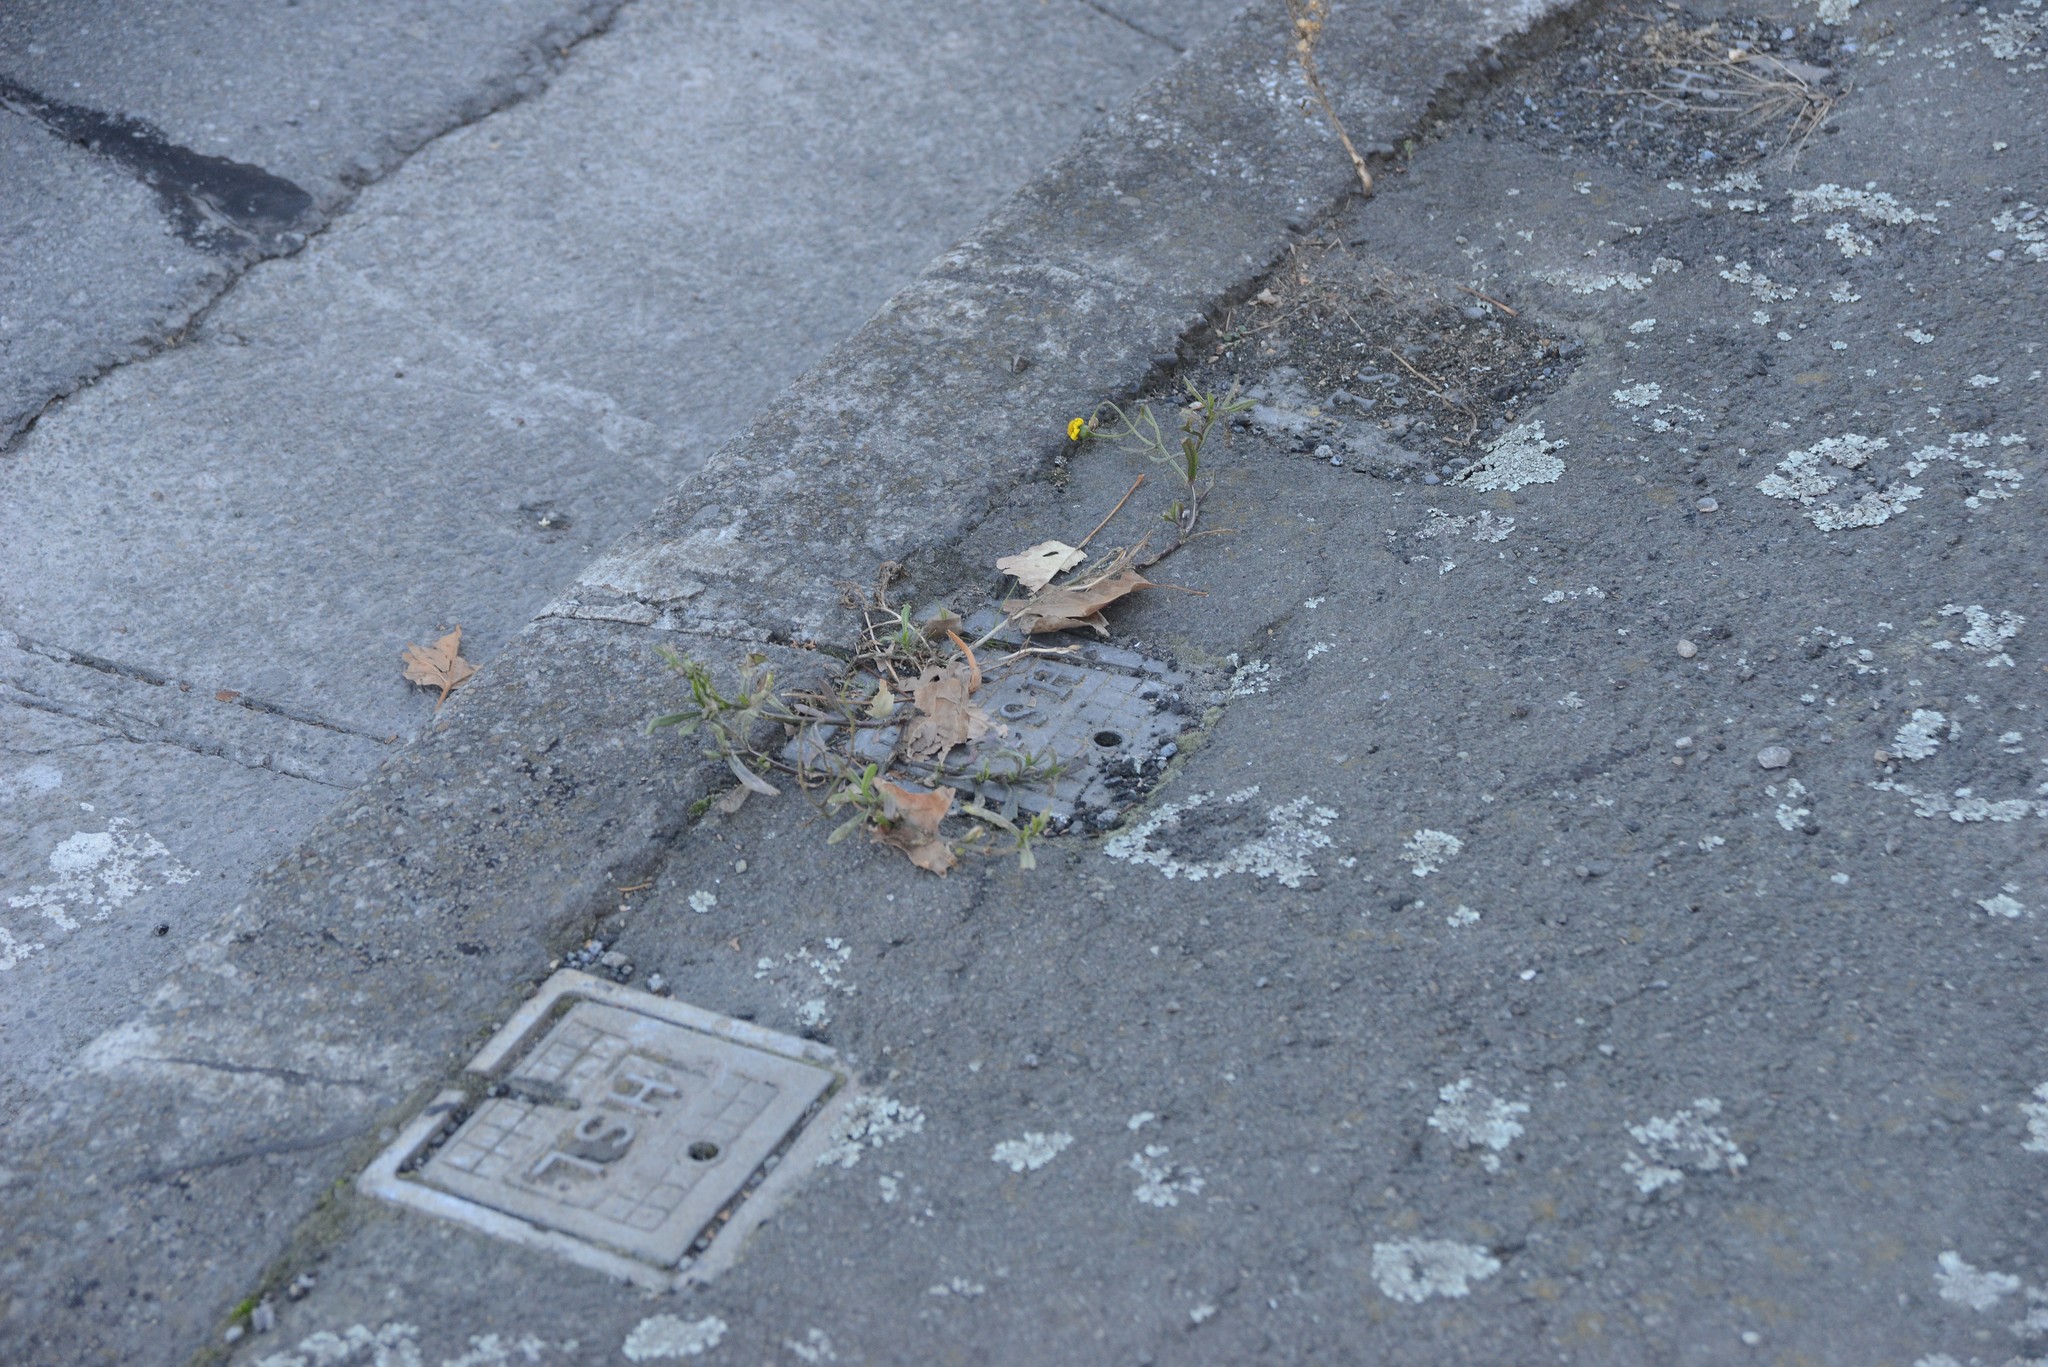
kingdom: Plantae
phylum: Tracheophyta
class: Magnoliopsida
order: Asterales
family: Asteraceae
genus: Senecio
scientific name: Senecio skirrhodon
